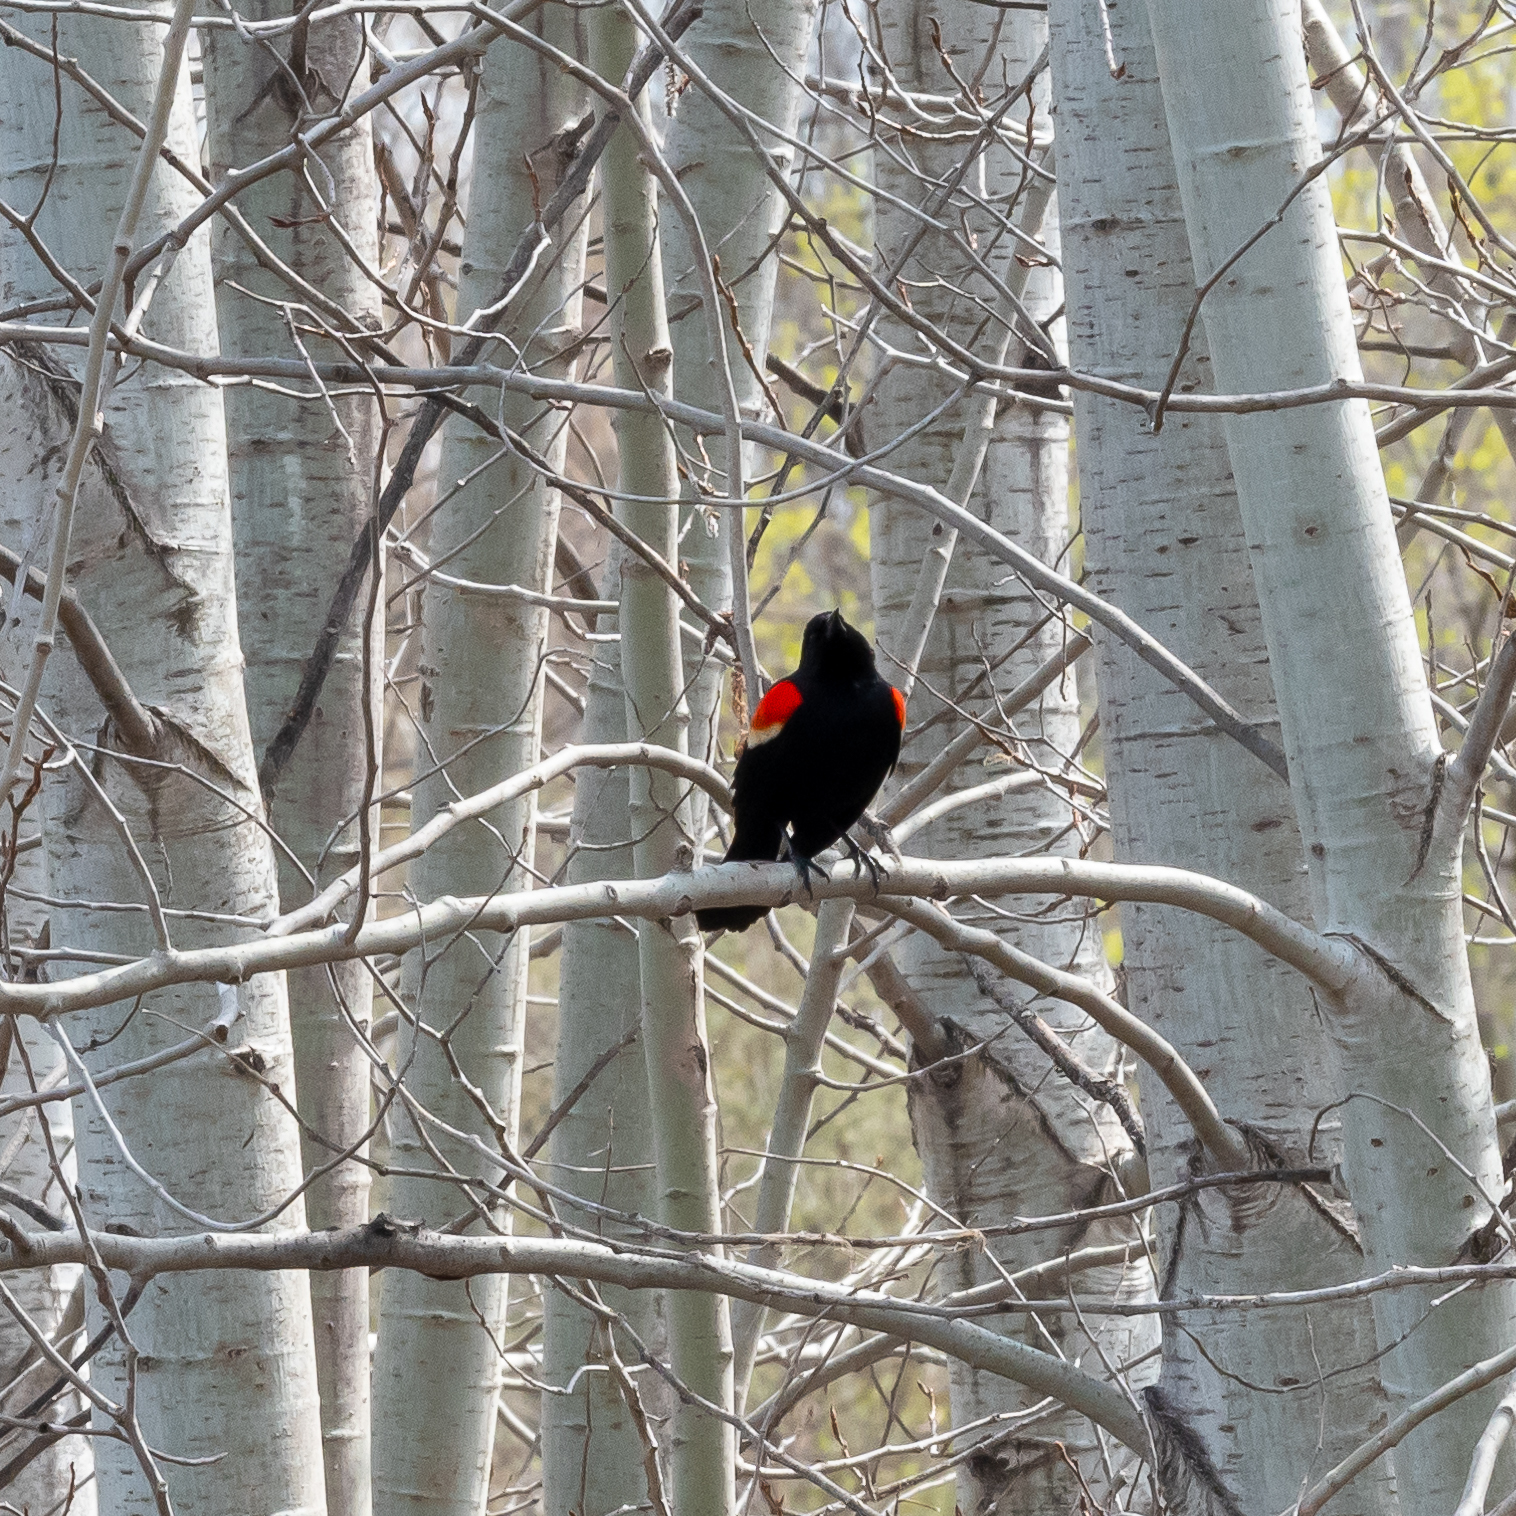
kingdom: Animalia
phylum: Chordata
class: Aves
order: Passeriformes
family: Icteridae
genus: Agelaius
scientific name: Agelaius phoeniceus
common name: Red-winged blackbird
